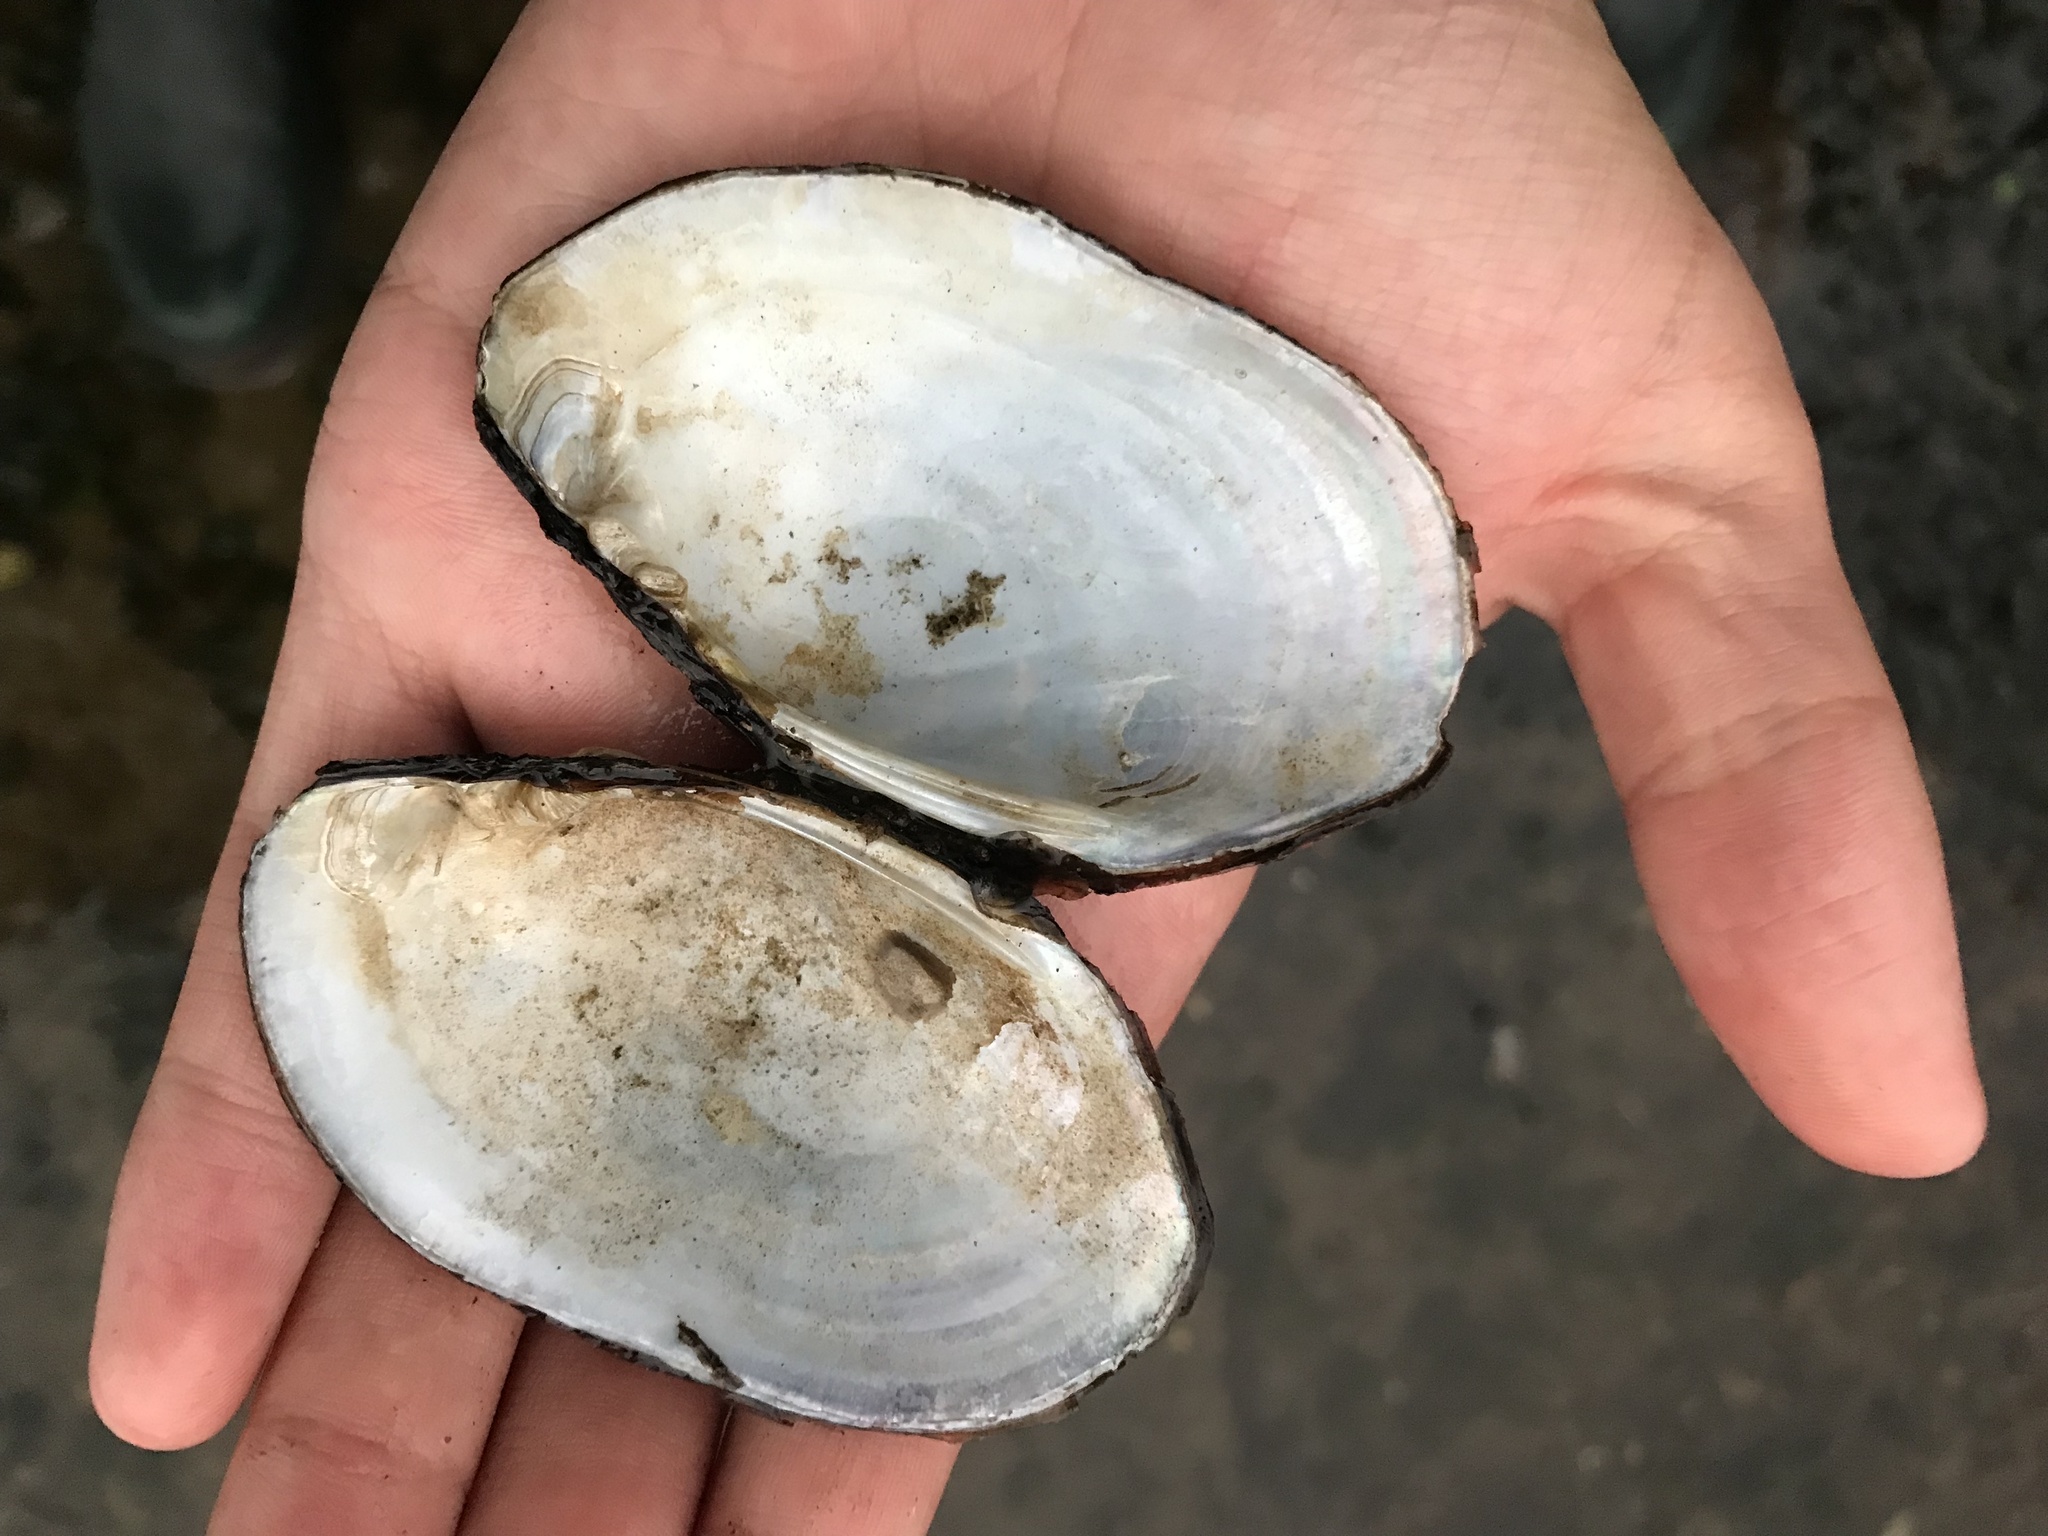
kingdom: Animalia
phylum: Mollusca
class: Bivalvia
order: Unionida
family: Unionidae
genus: Lampsilis
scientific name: Lampsilis radiata
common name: Eastern lampmussel
